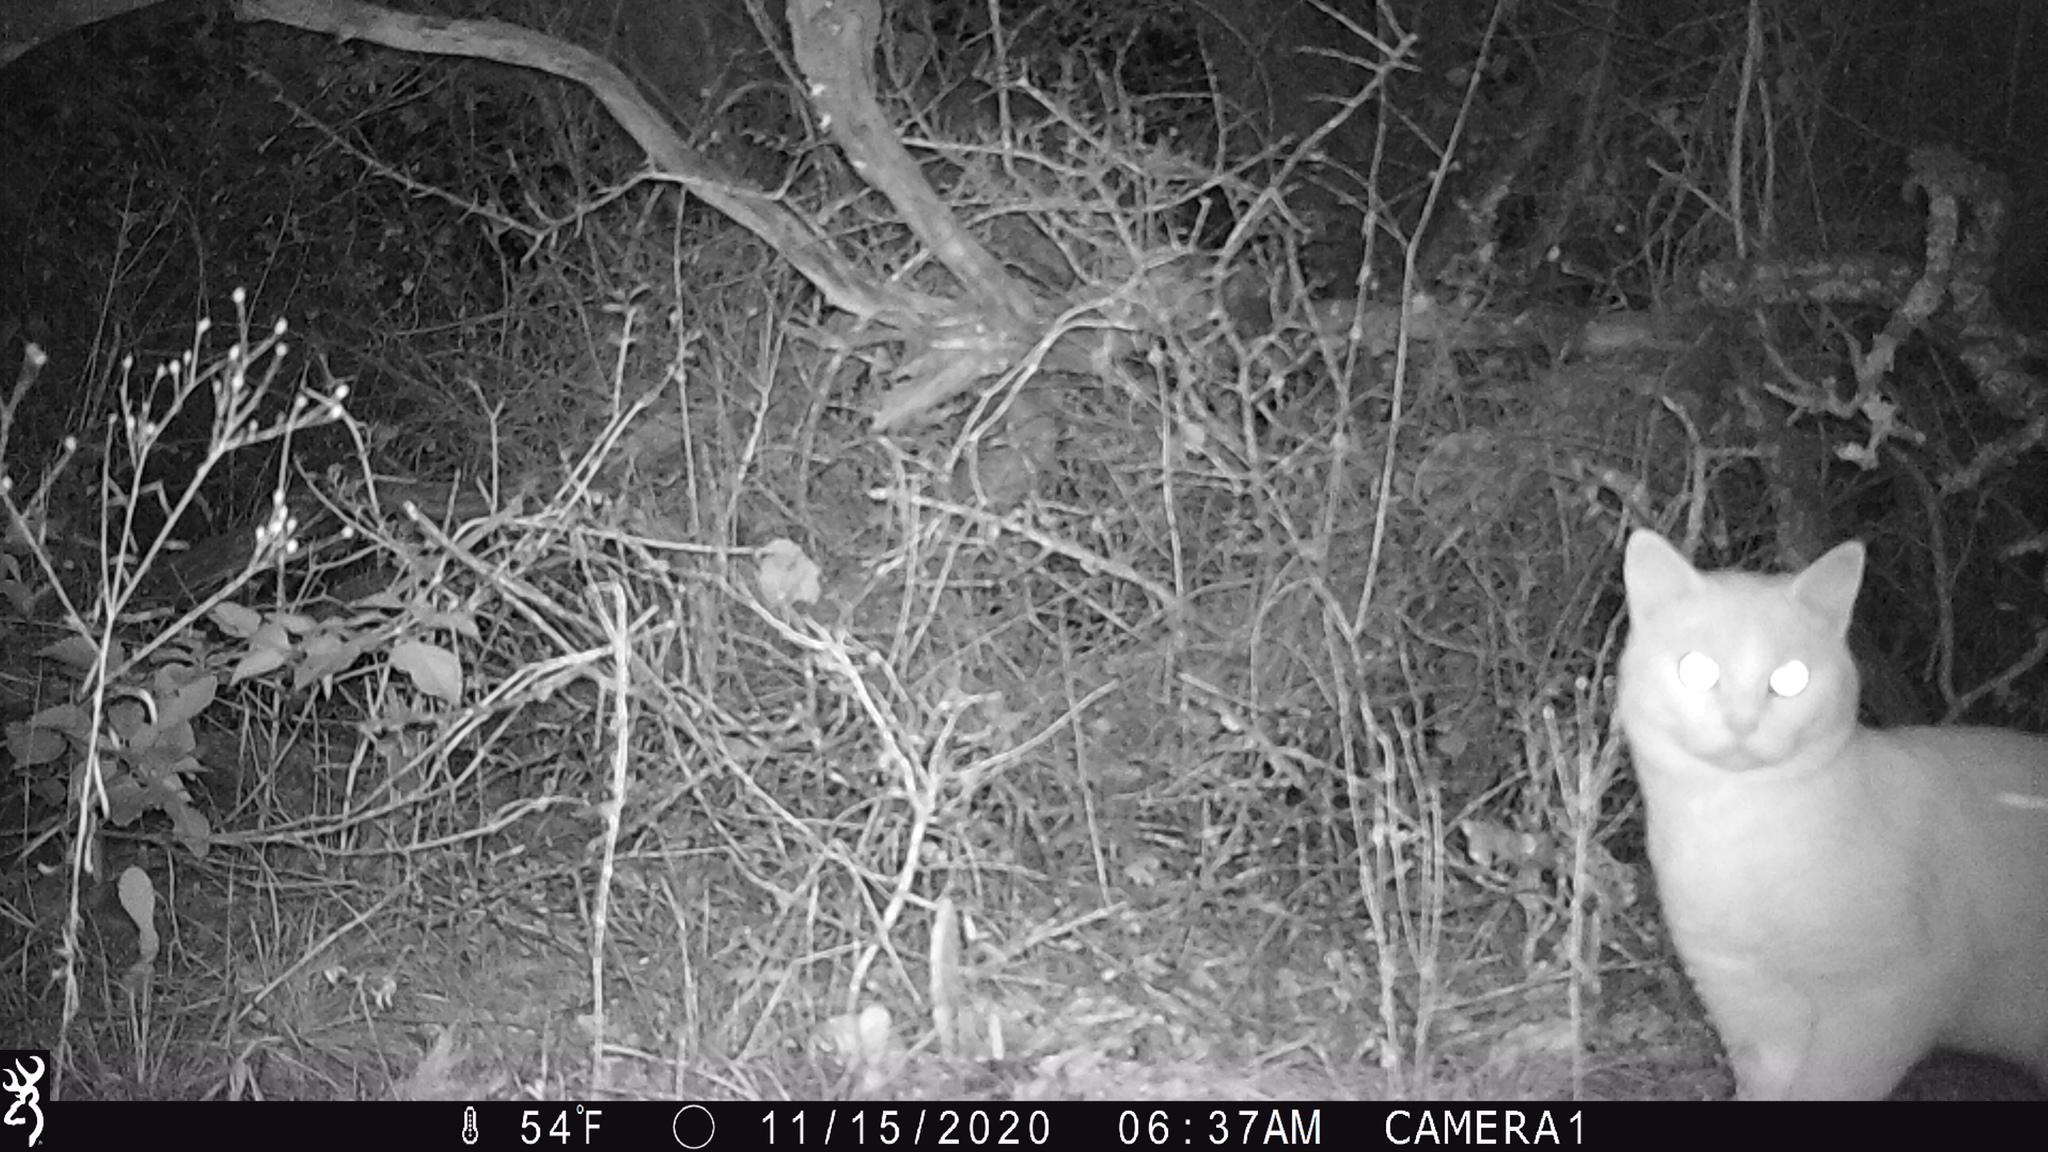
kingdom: Animalia
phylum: Chordata
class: Mammalia
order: Carnivora
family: Felidae
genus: Felis
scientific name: Felis catus
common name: Domestic cat
